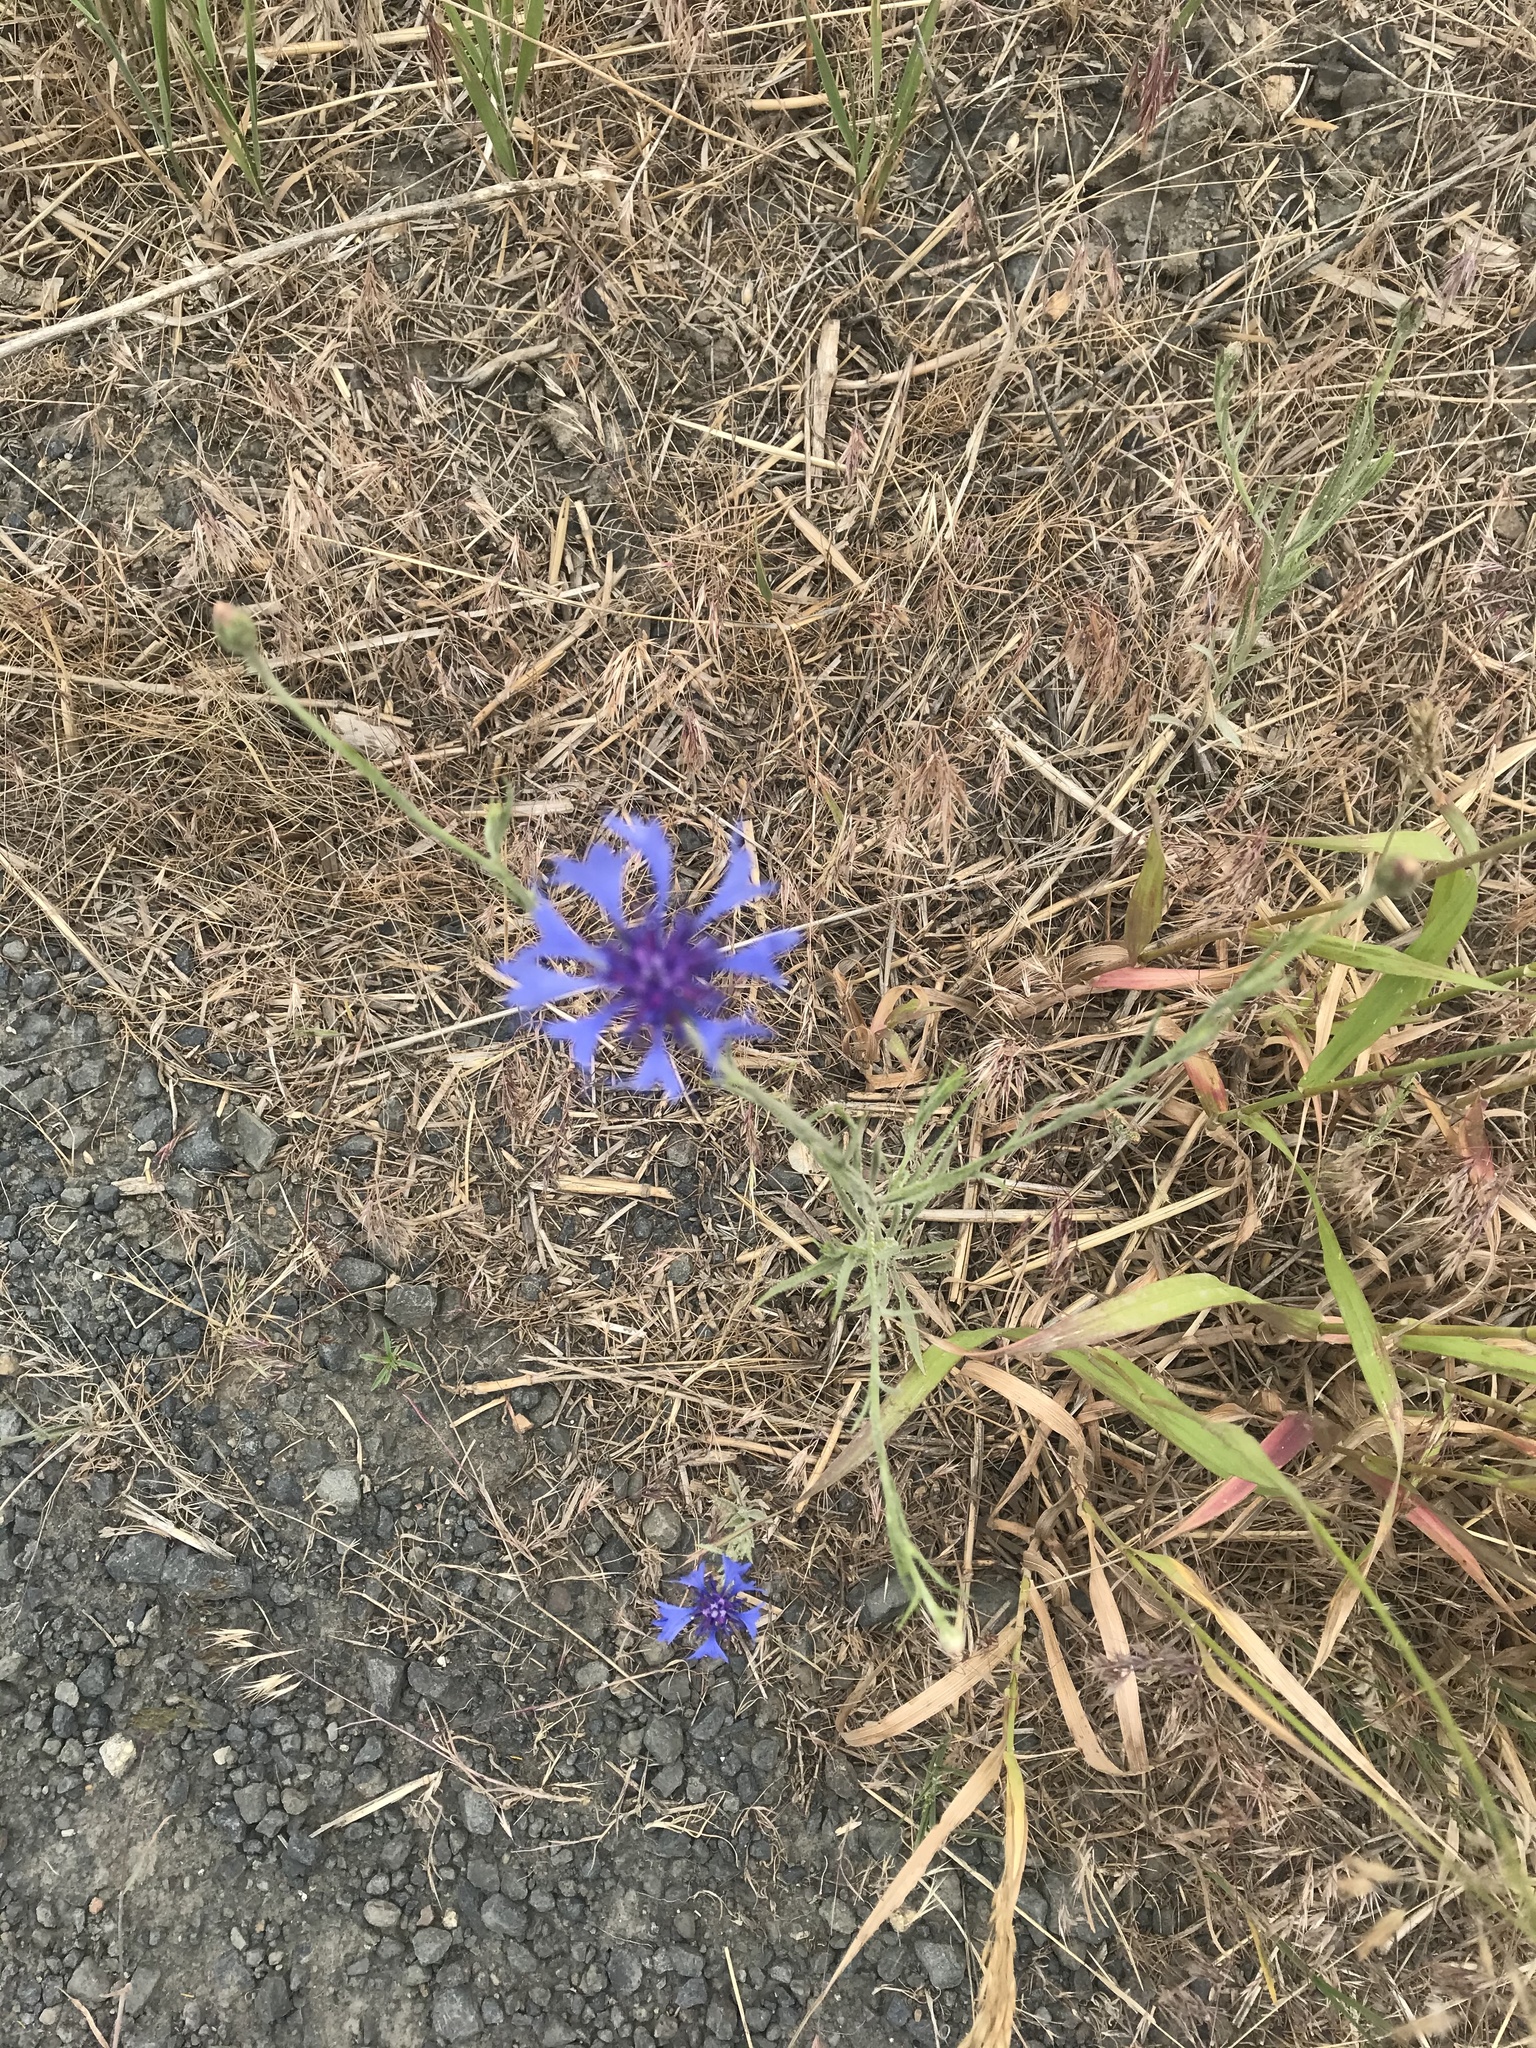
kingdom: Plantae
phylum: Tracheophyta
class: Magnoliopsida
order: Asterales
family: Asteraceae
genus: Centaurea
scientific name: Centaurea cyanus
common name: Cornflower
